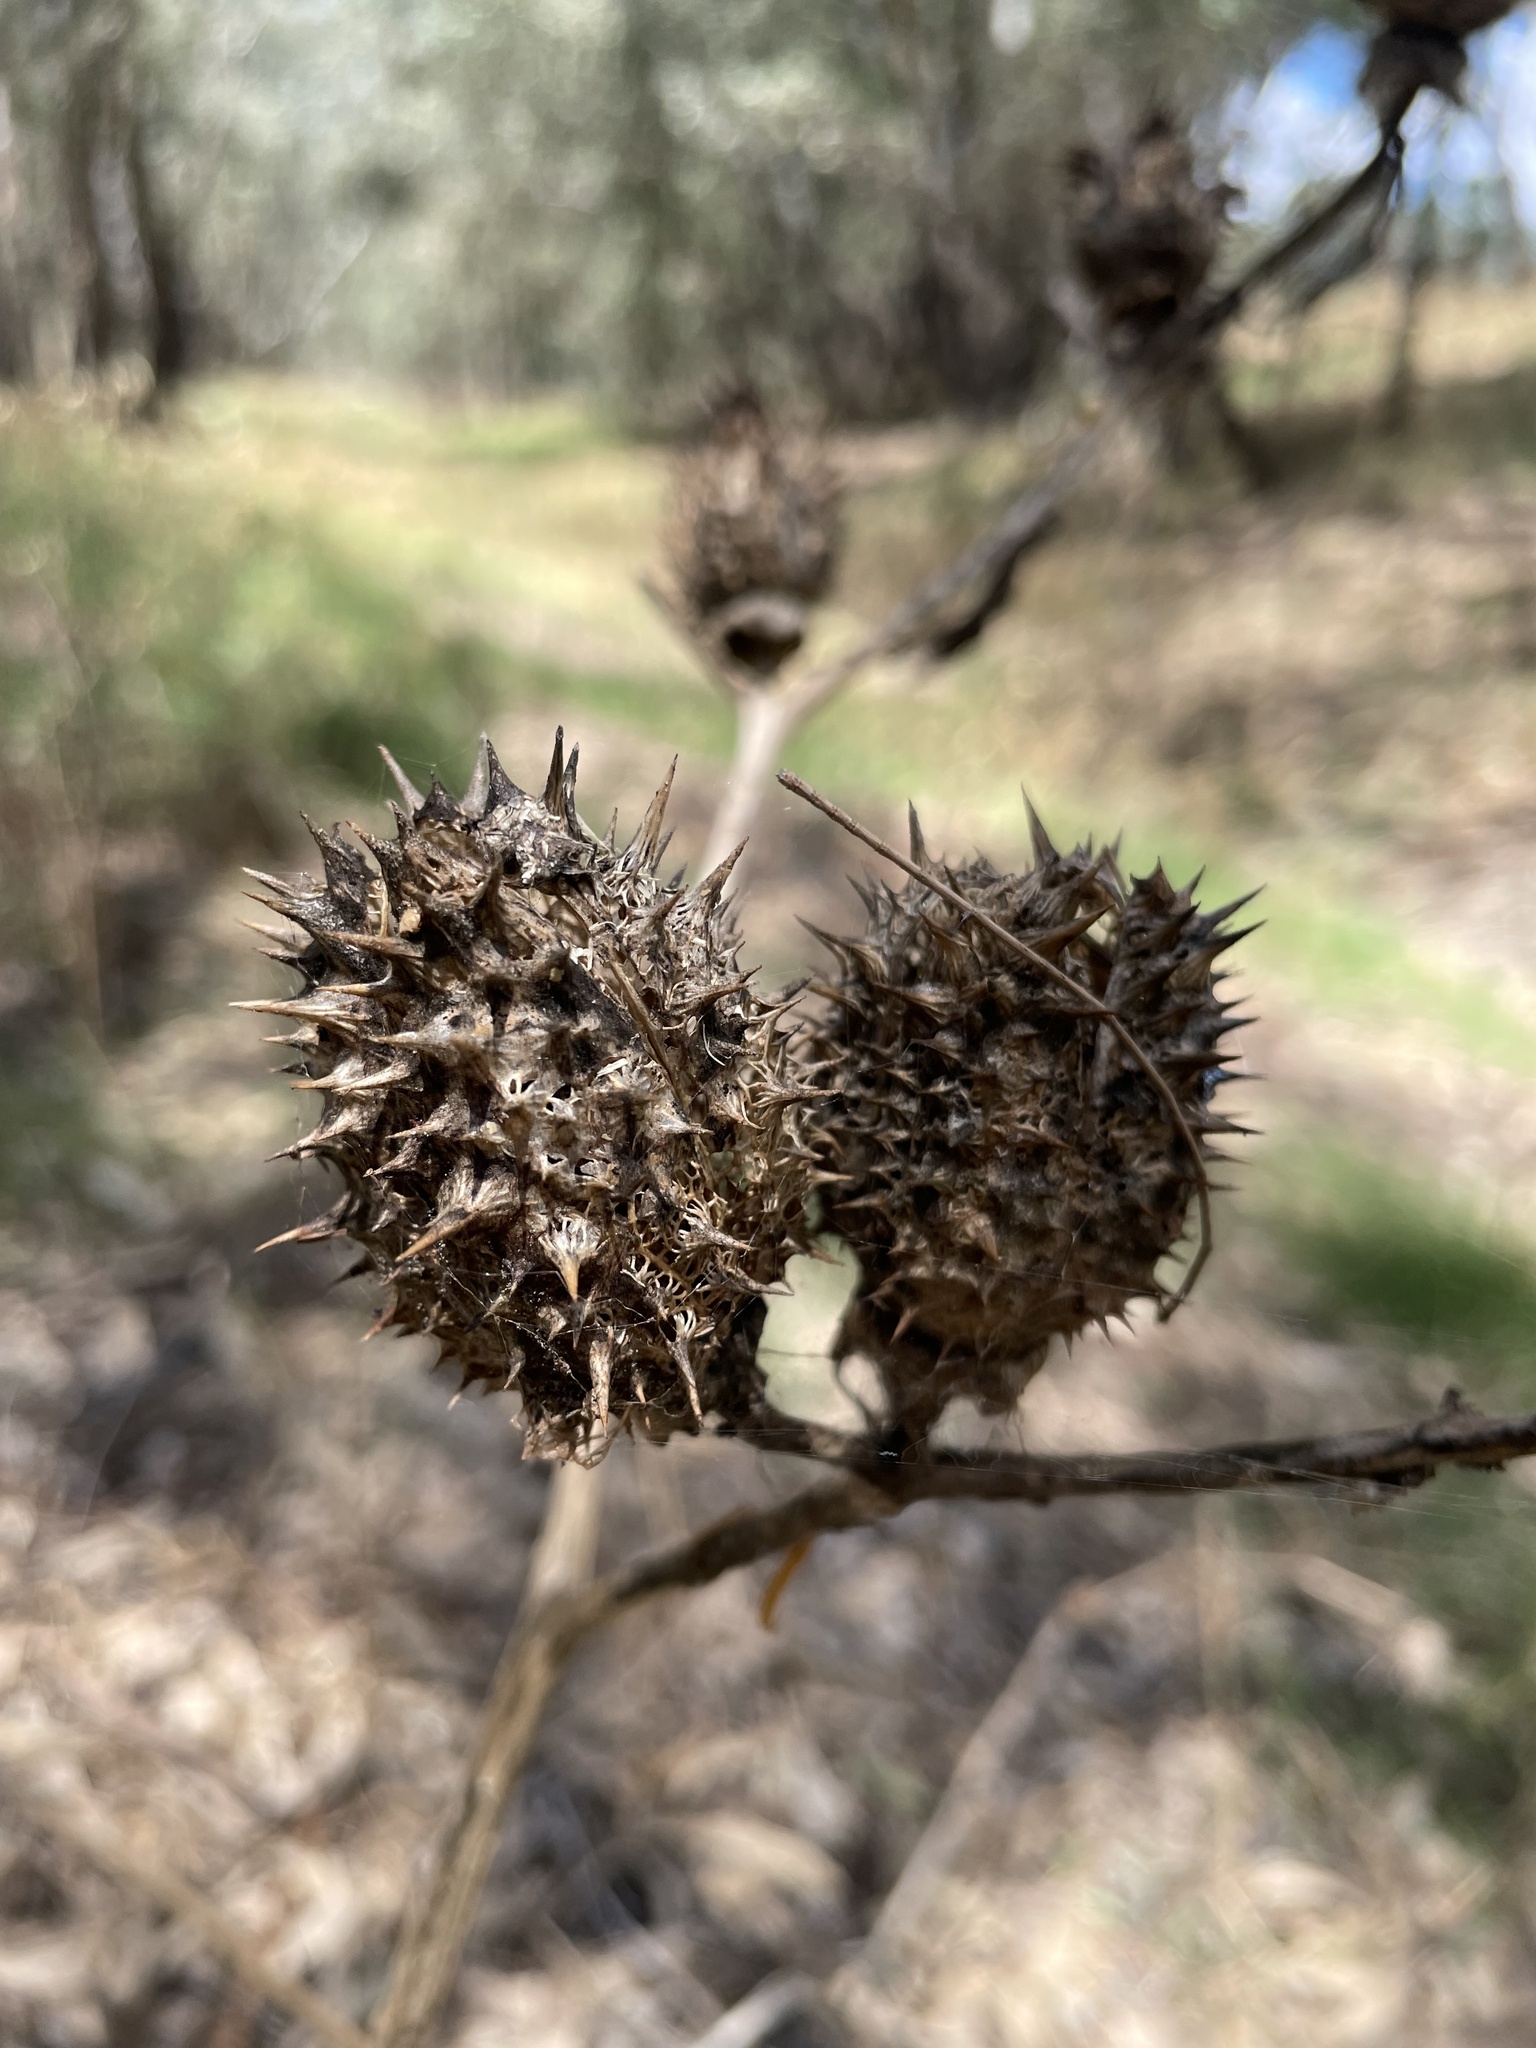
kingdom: Plantae
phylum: Tracheophyta
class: Magnoliopsida
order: Solanales
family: Solanaceae
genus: Datura
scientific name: Datura stramonium
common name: Thorn-apple
